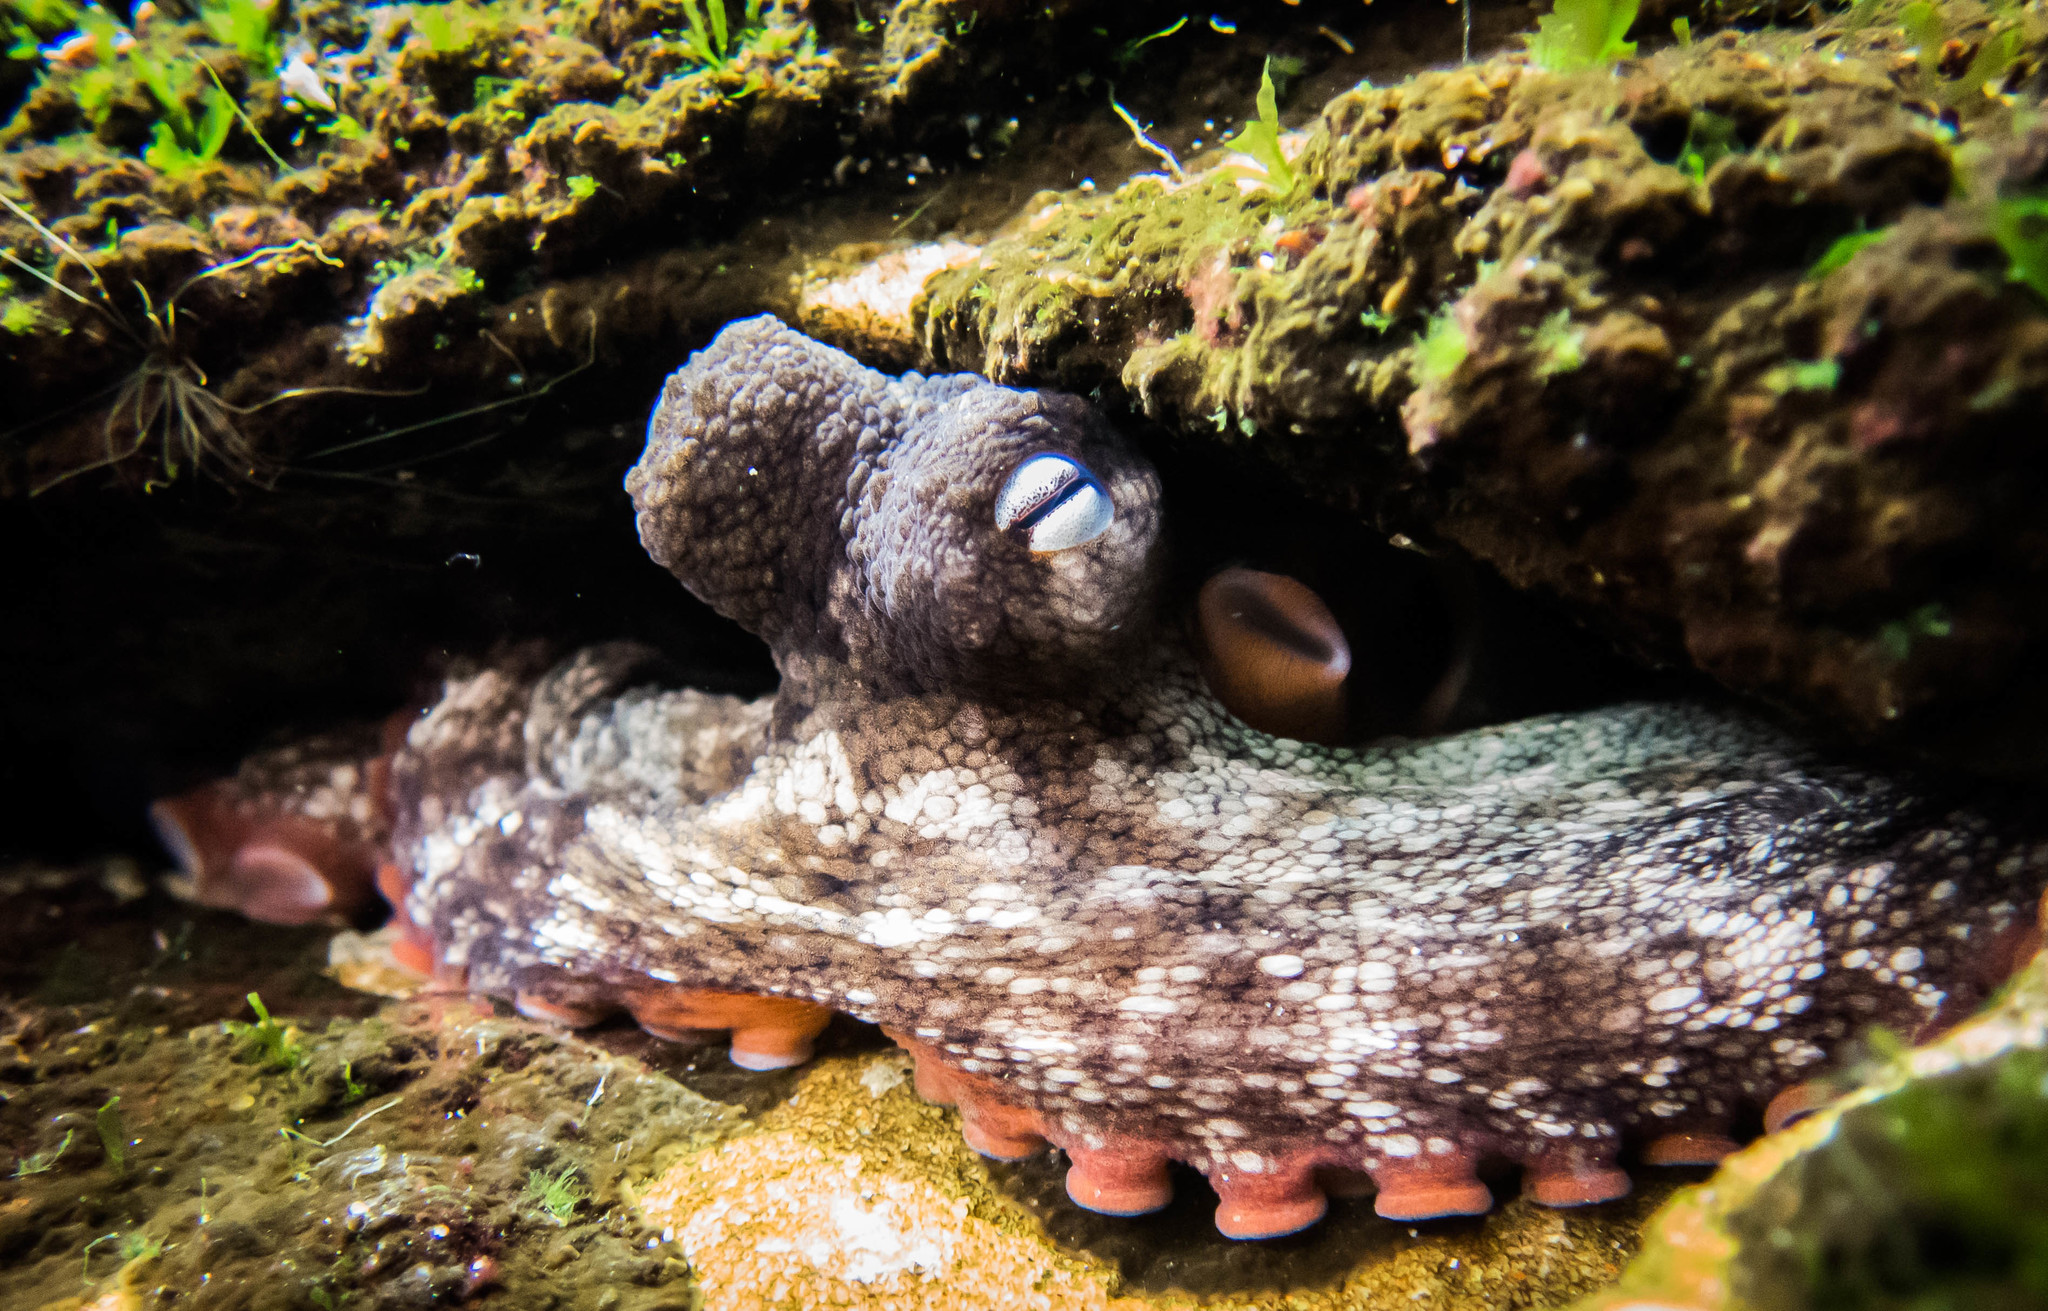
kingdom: Animalia
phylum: Mollusca
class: Cephalopoda
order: Octopoda
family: Octopodidae
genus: Octopus
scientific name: Octopus tetricus
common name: Sydney octopus
